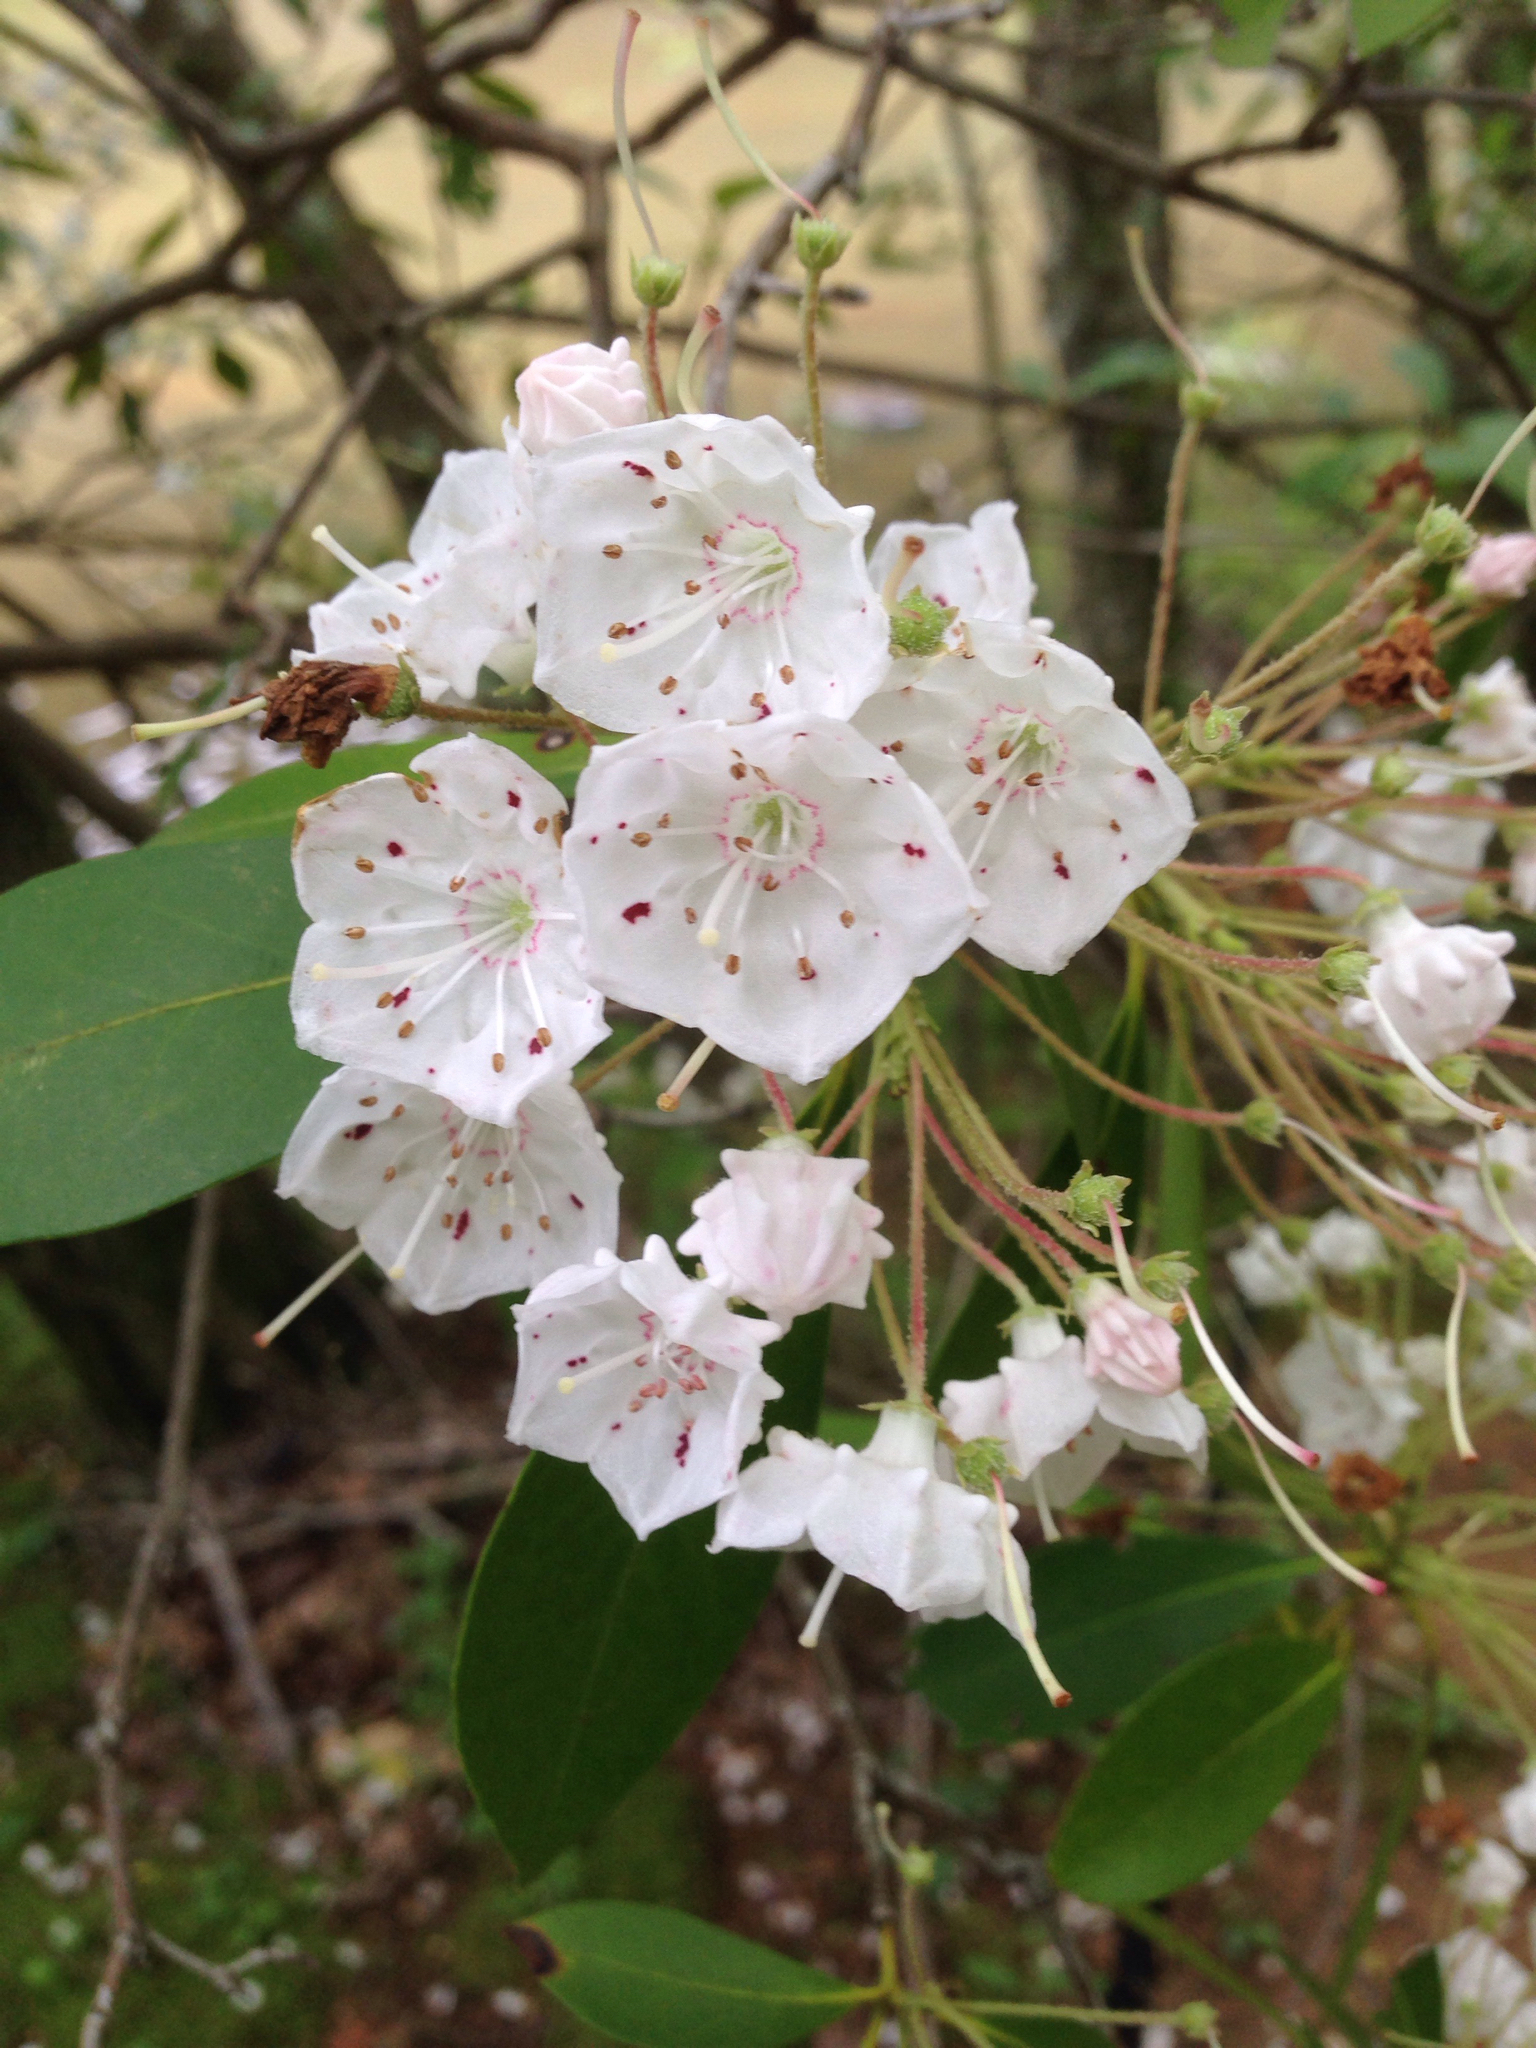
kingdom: Plantae
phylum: Tracheophyta
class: Magnoliopsida
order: Ericales
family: Ericaceae
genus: Kalmia
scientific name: Kalmia latifolia
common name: Mountain-laurel
